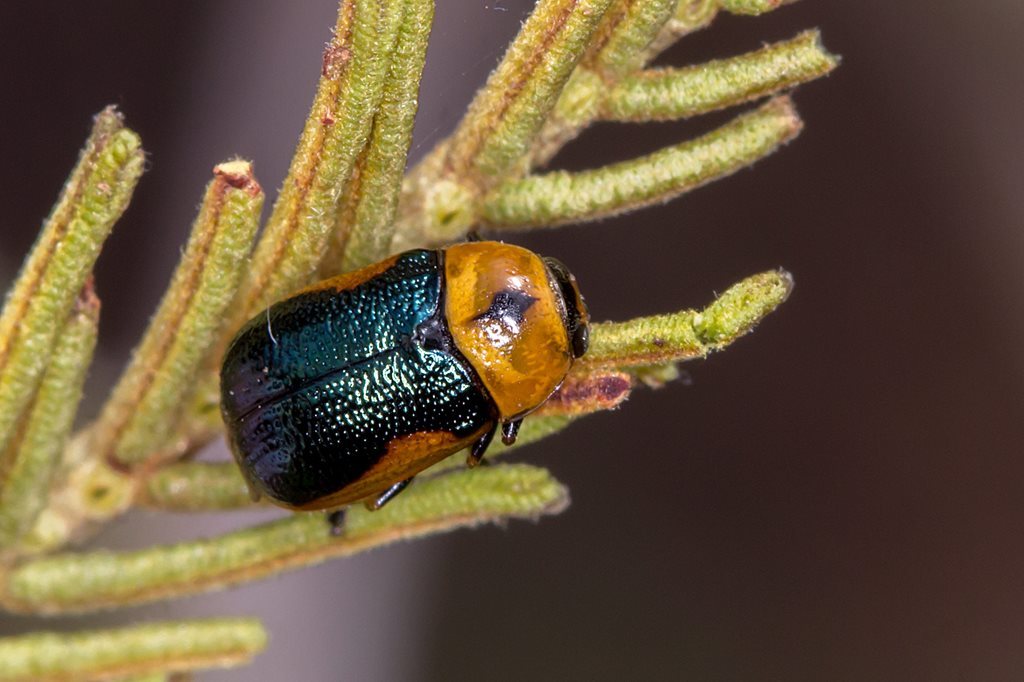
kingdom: Animalia
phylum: Arthropoda
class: Insecta
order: Coleoptera
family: Chrysomelidae
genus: Aporocera
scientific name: Aporocera
